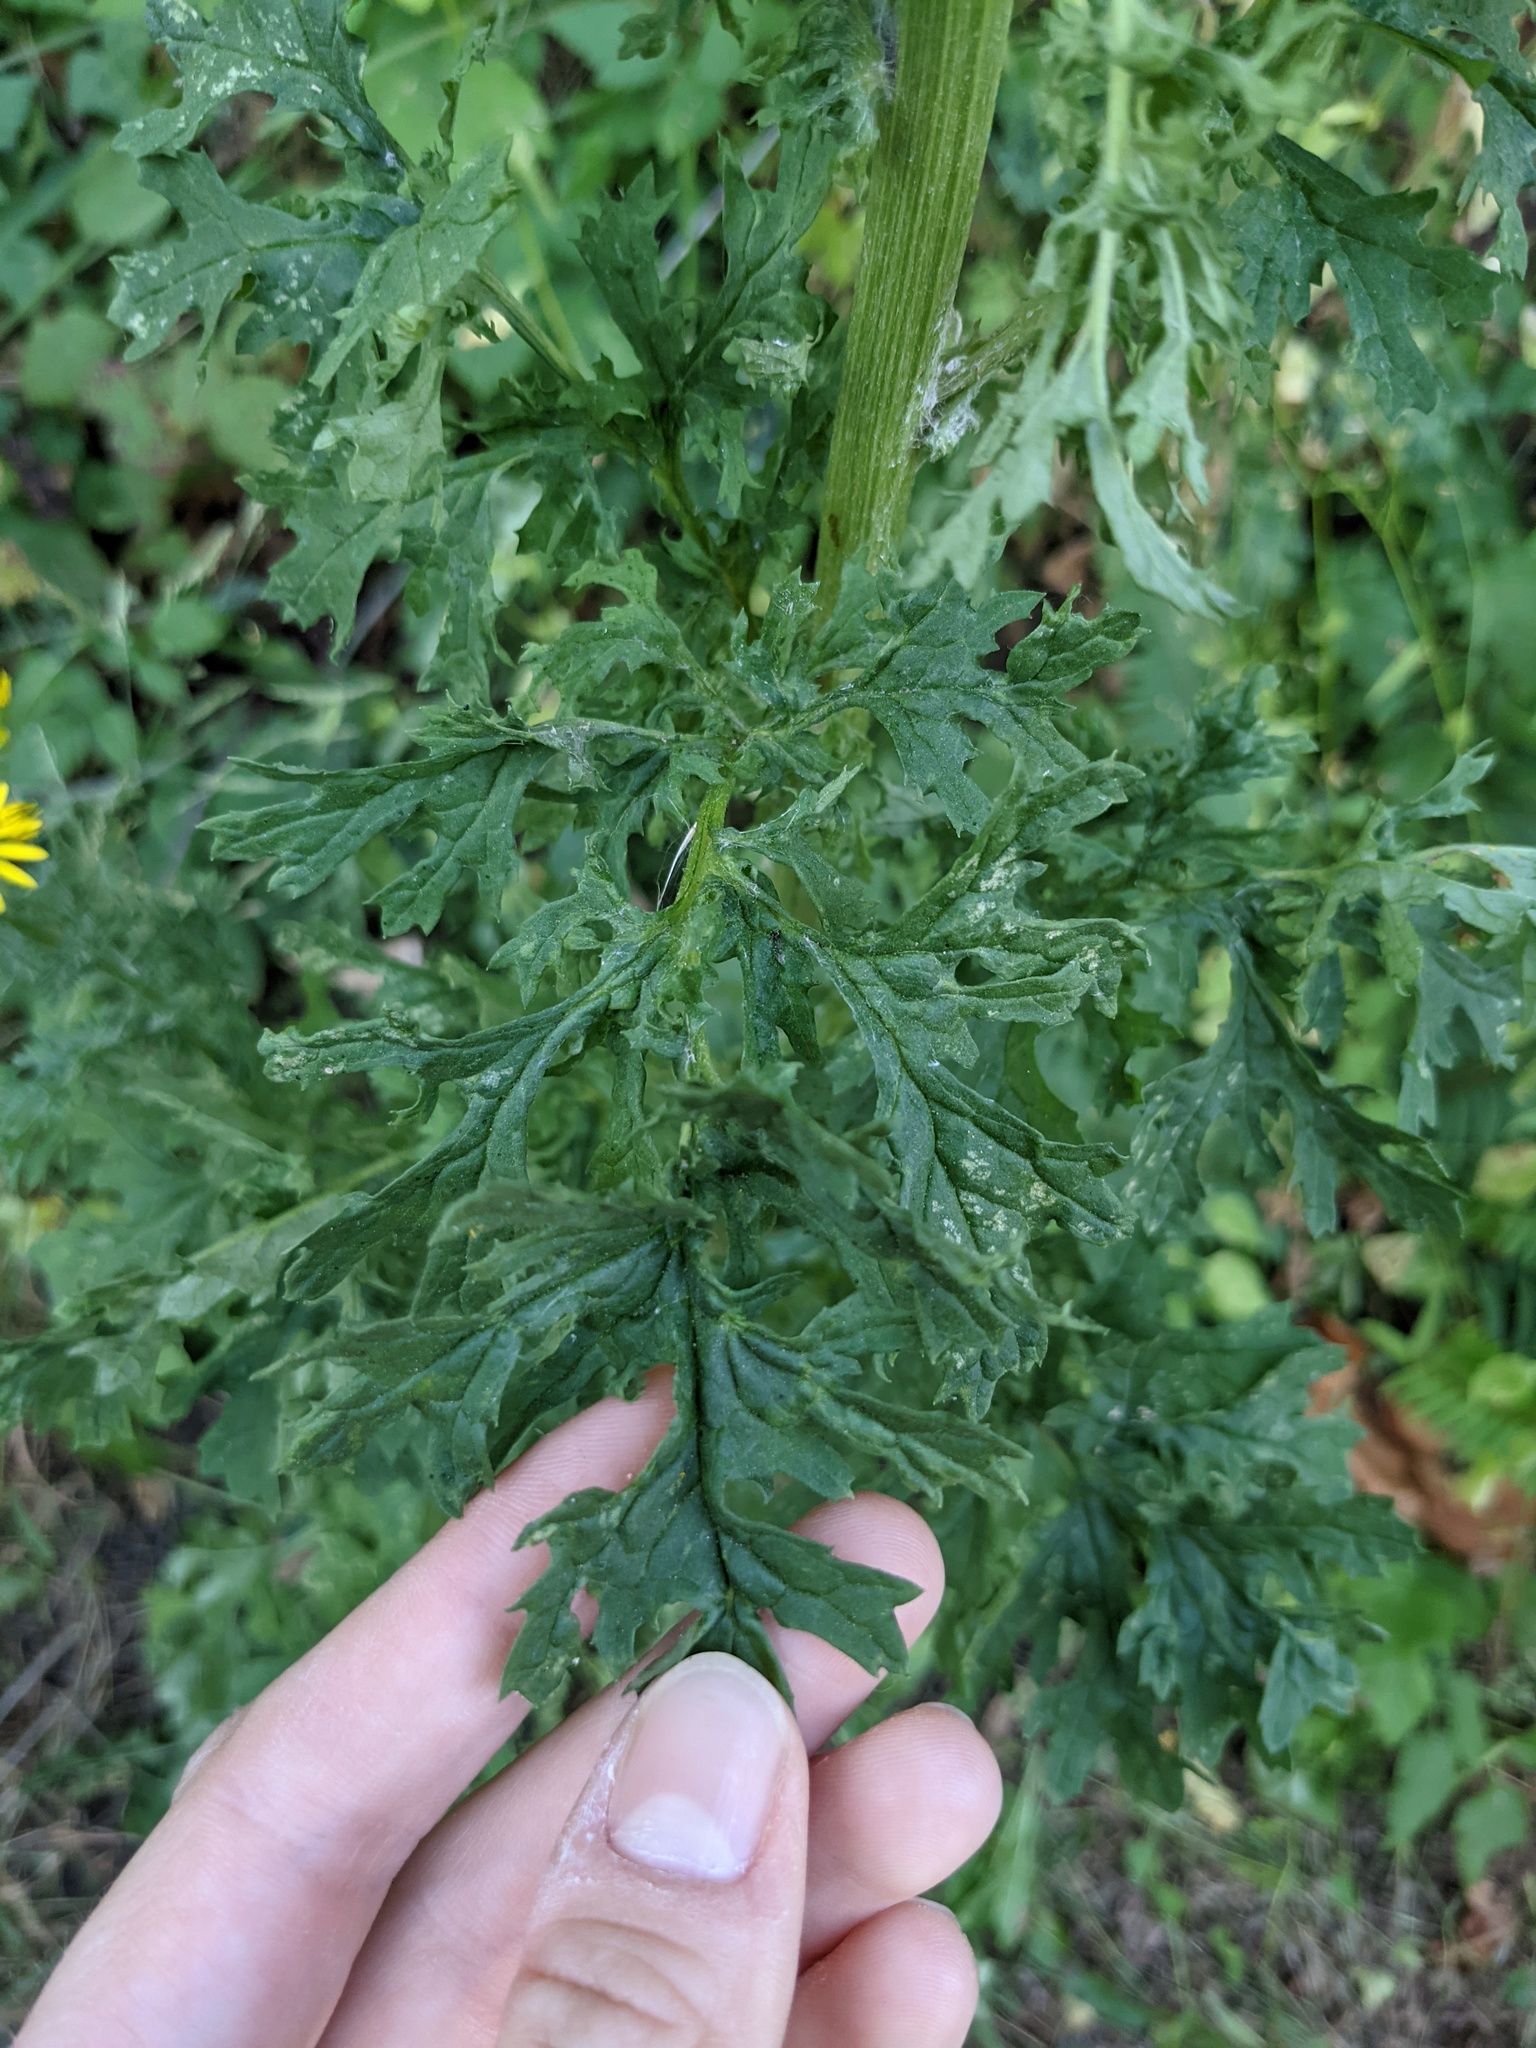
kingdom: Plantae
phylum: Tracheophyta
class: Magnoliopsida
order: Asterales
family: Asteraceae
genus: Jacobaea
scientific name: Jacobaea vulgaris
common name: Stinking willie
